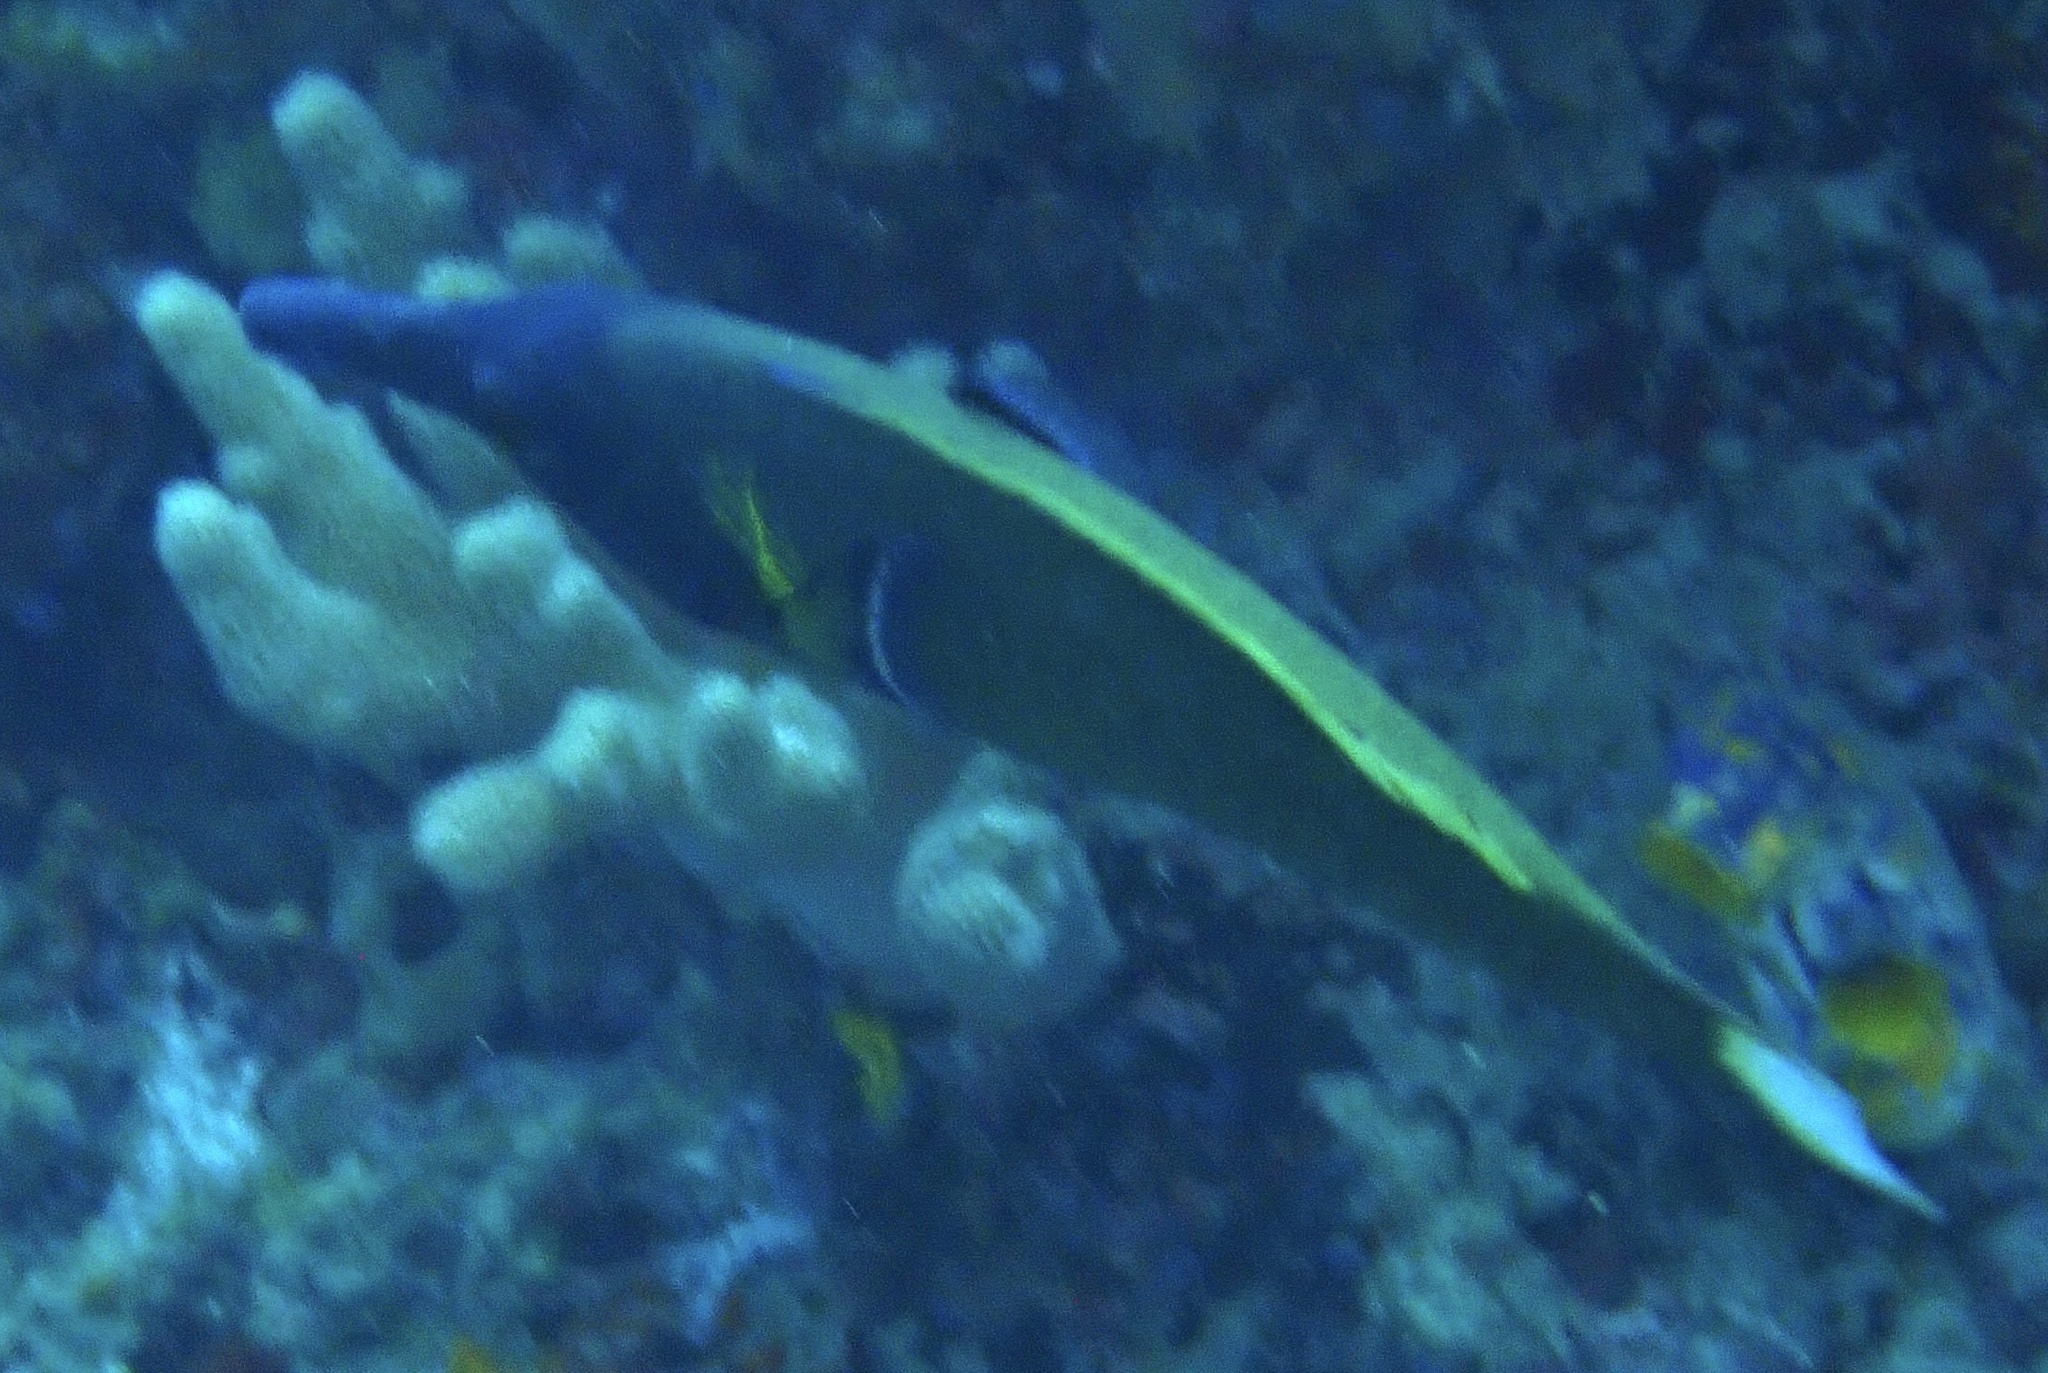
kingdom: Animalia
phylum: Chordata
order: Perciformes
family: Labridae
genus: Gomphosus
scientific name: Gomphosus varius
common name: Bird wrasse
